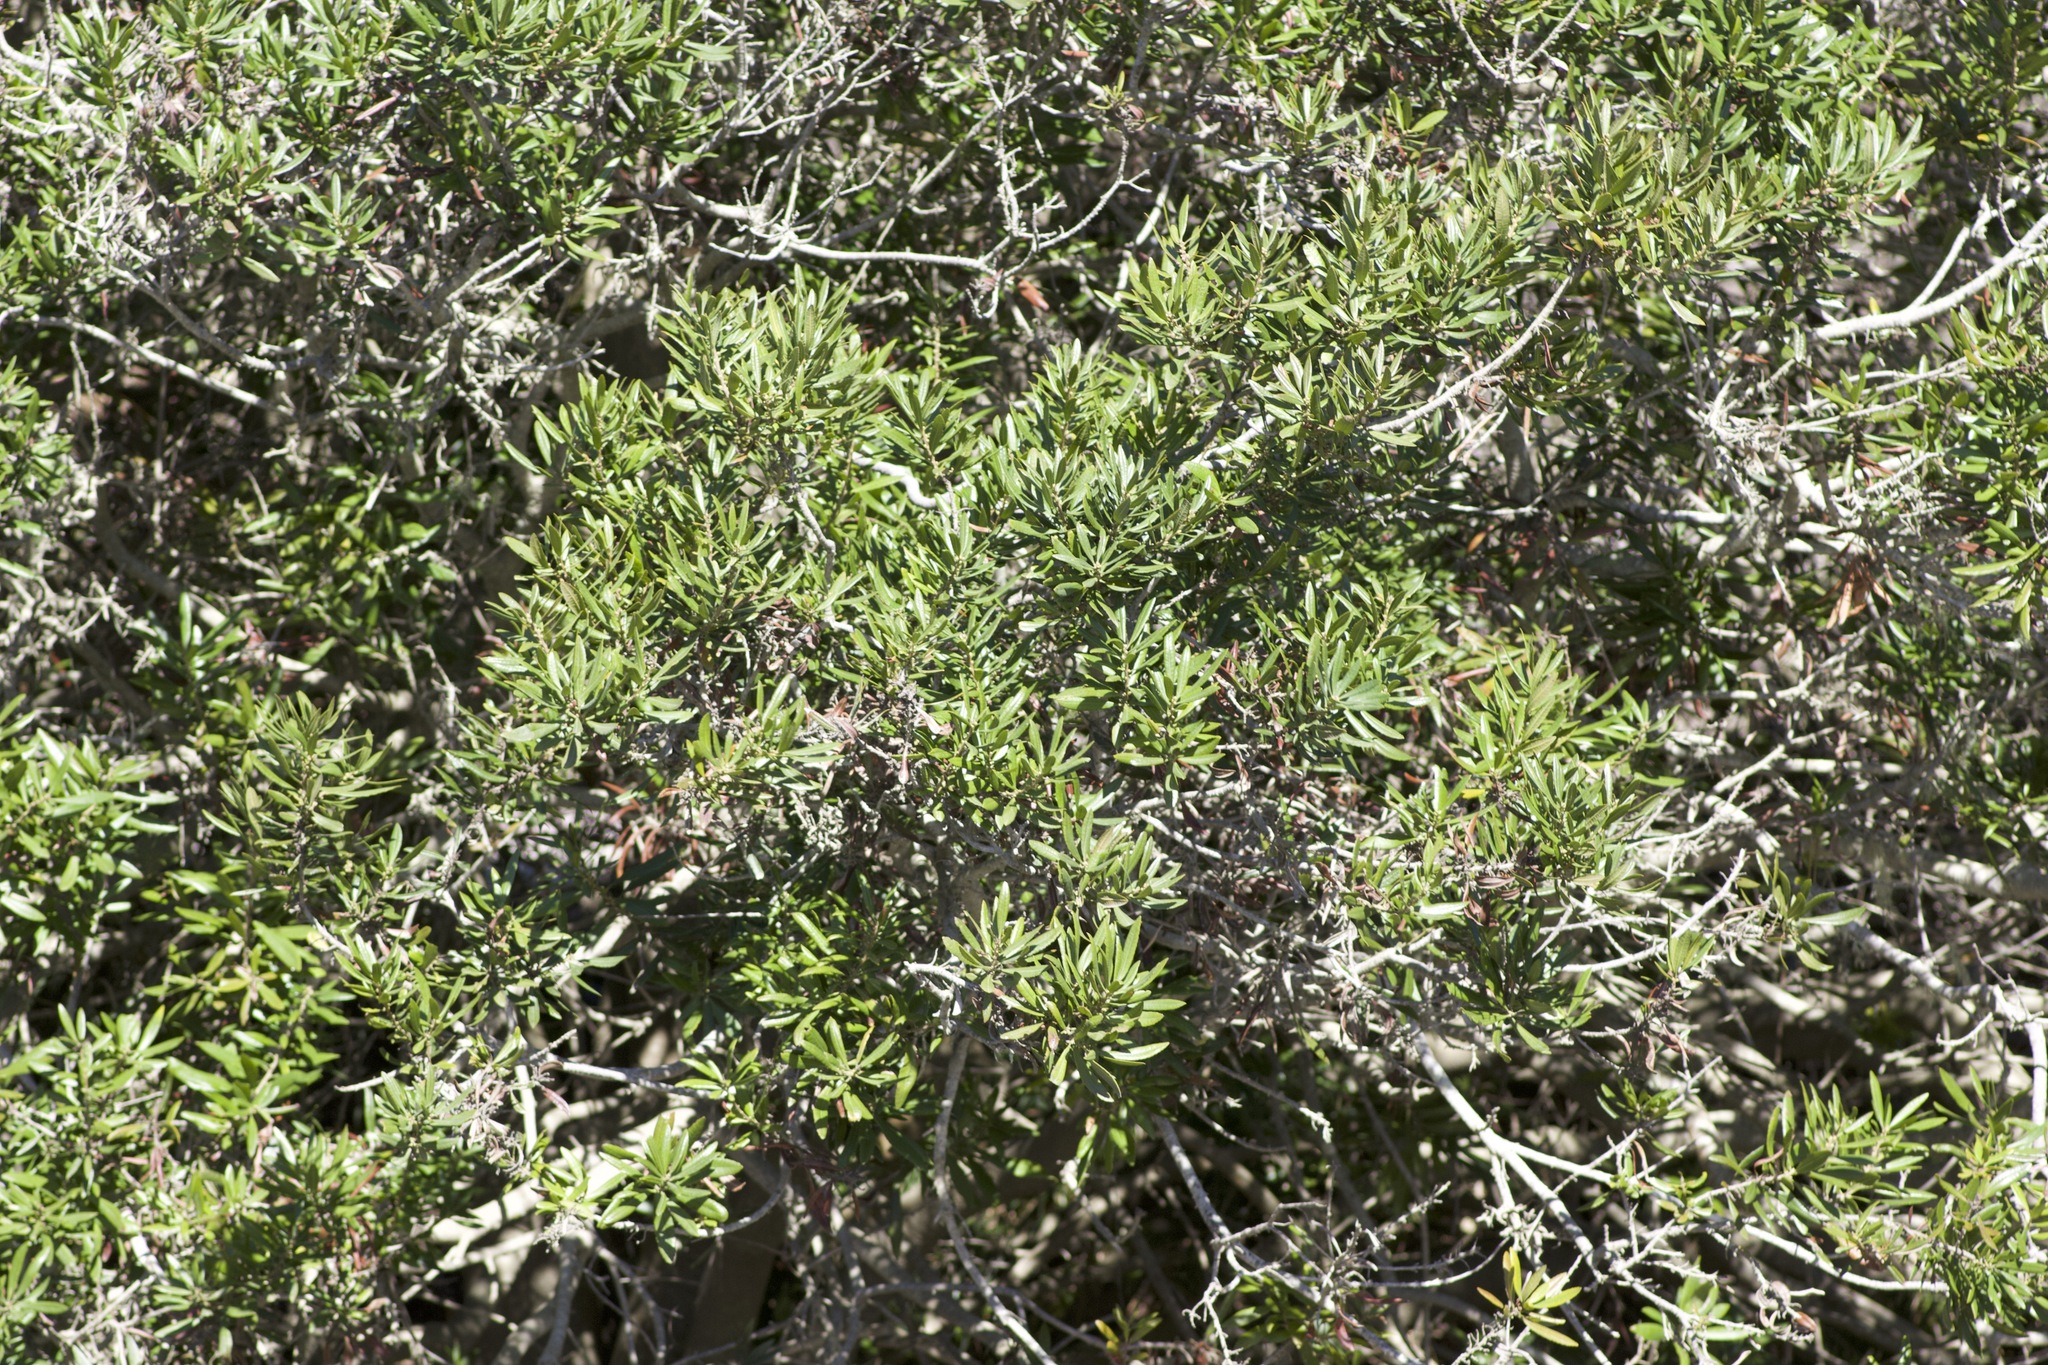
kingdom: Plantae
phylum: Tracheophyta
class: Magnoliopsida
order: Fagales
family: Myricaceae
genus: Morella
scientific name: Morella californica
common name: California wax-myrtle
